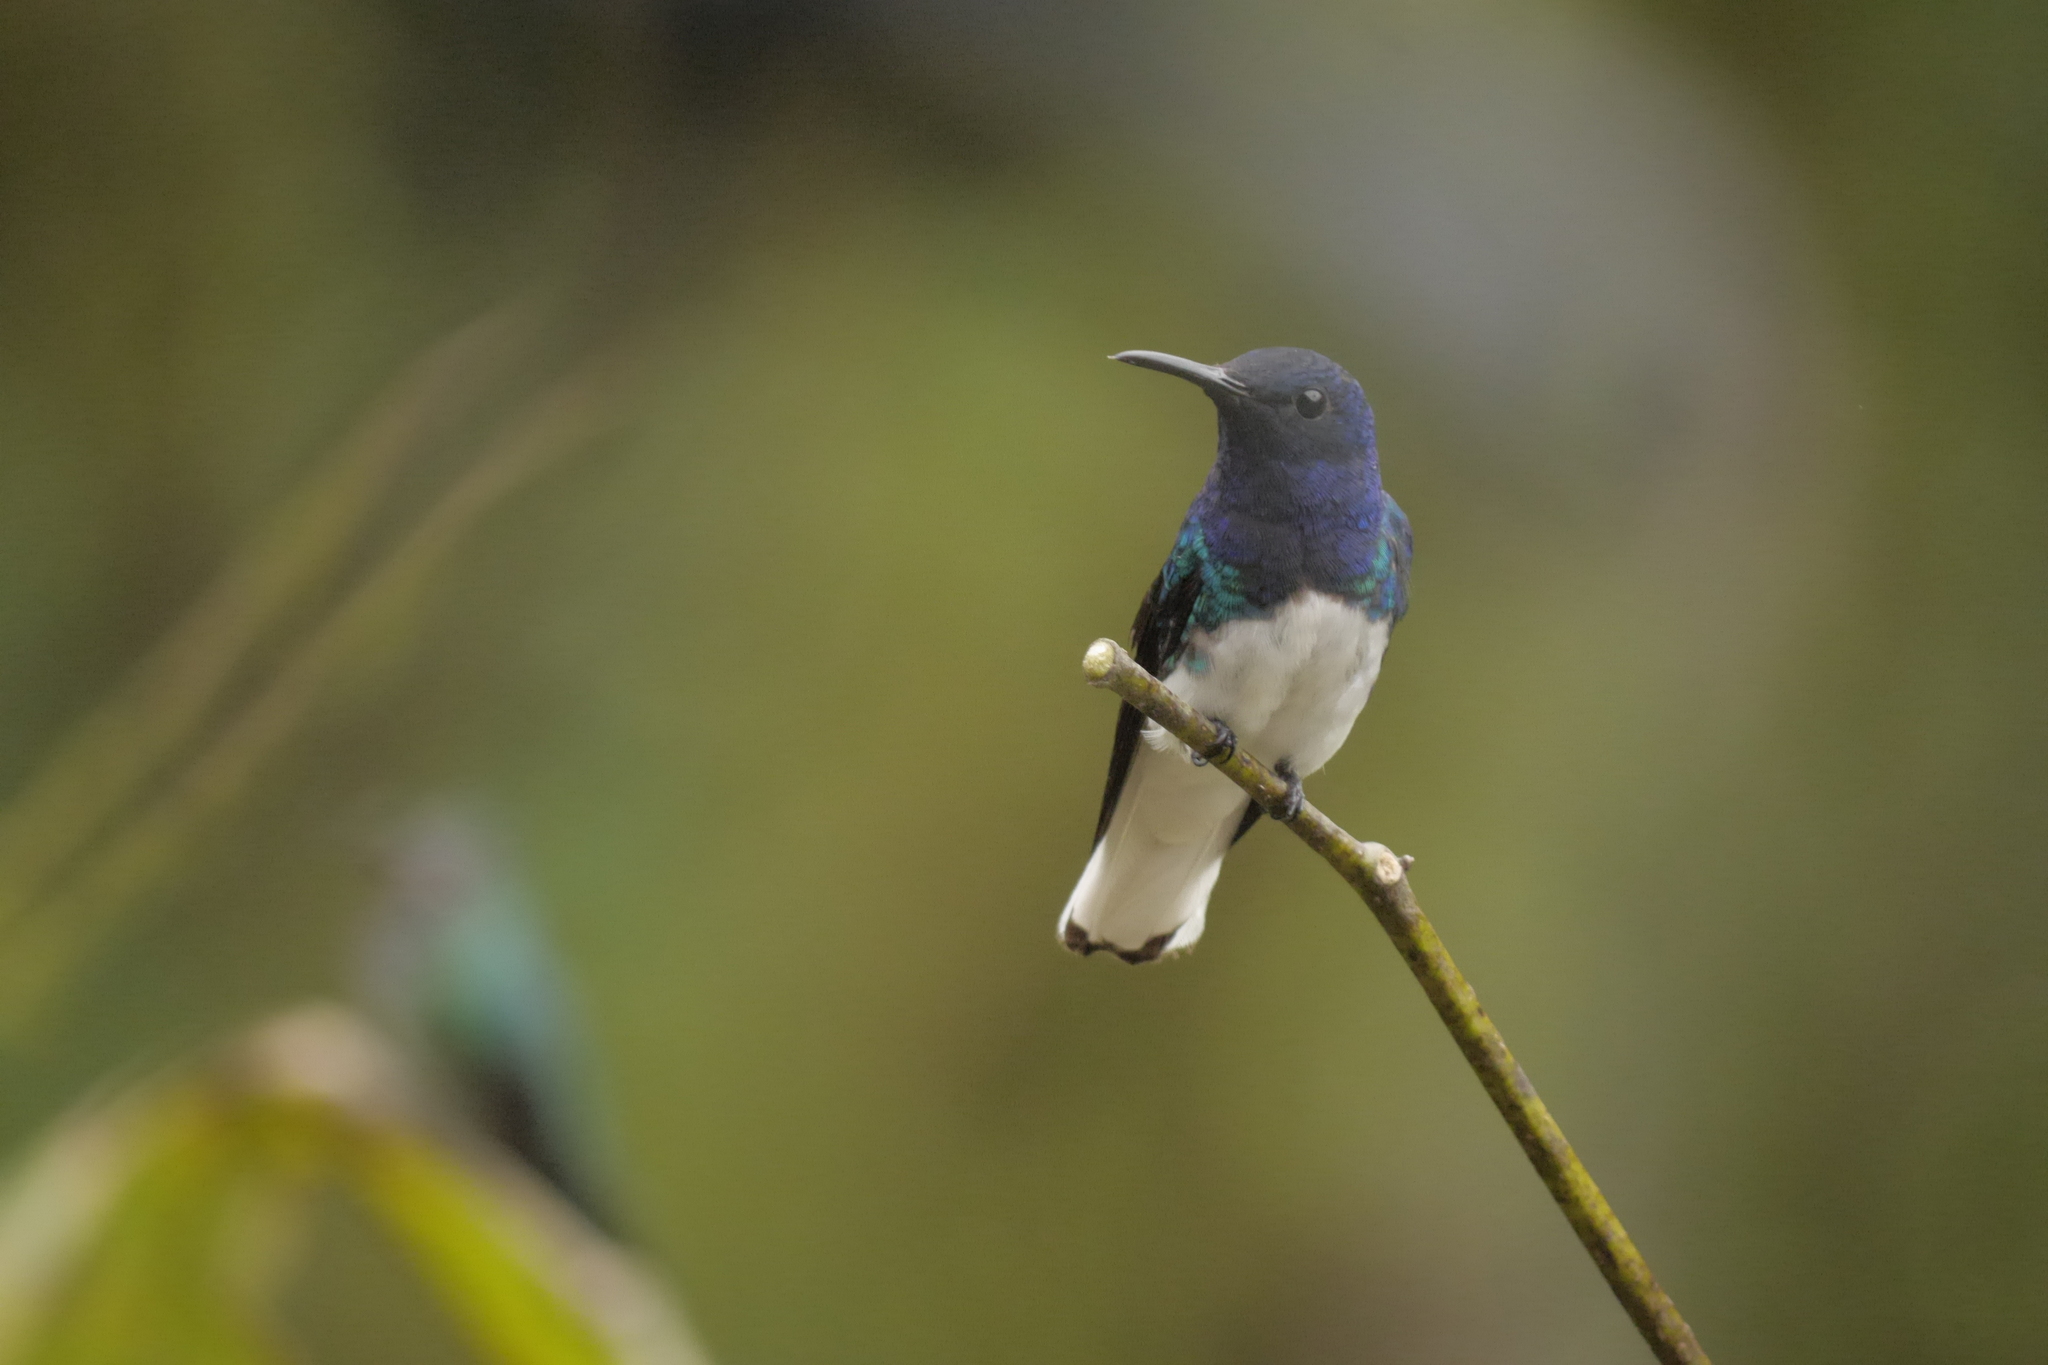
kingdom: Animalia
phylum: Chordata
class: Aves
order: Apodiformes
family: Trochilidae
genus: Florisuga
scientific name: Florisuga mellivora
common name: White-necked jacobin
